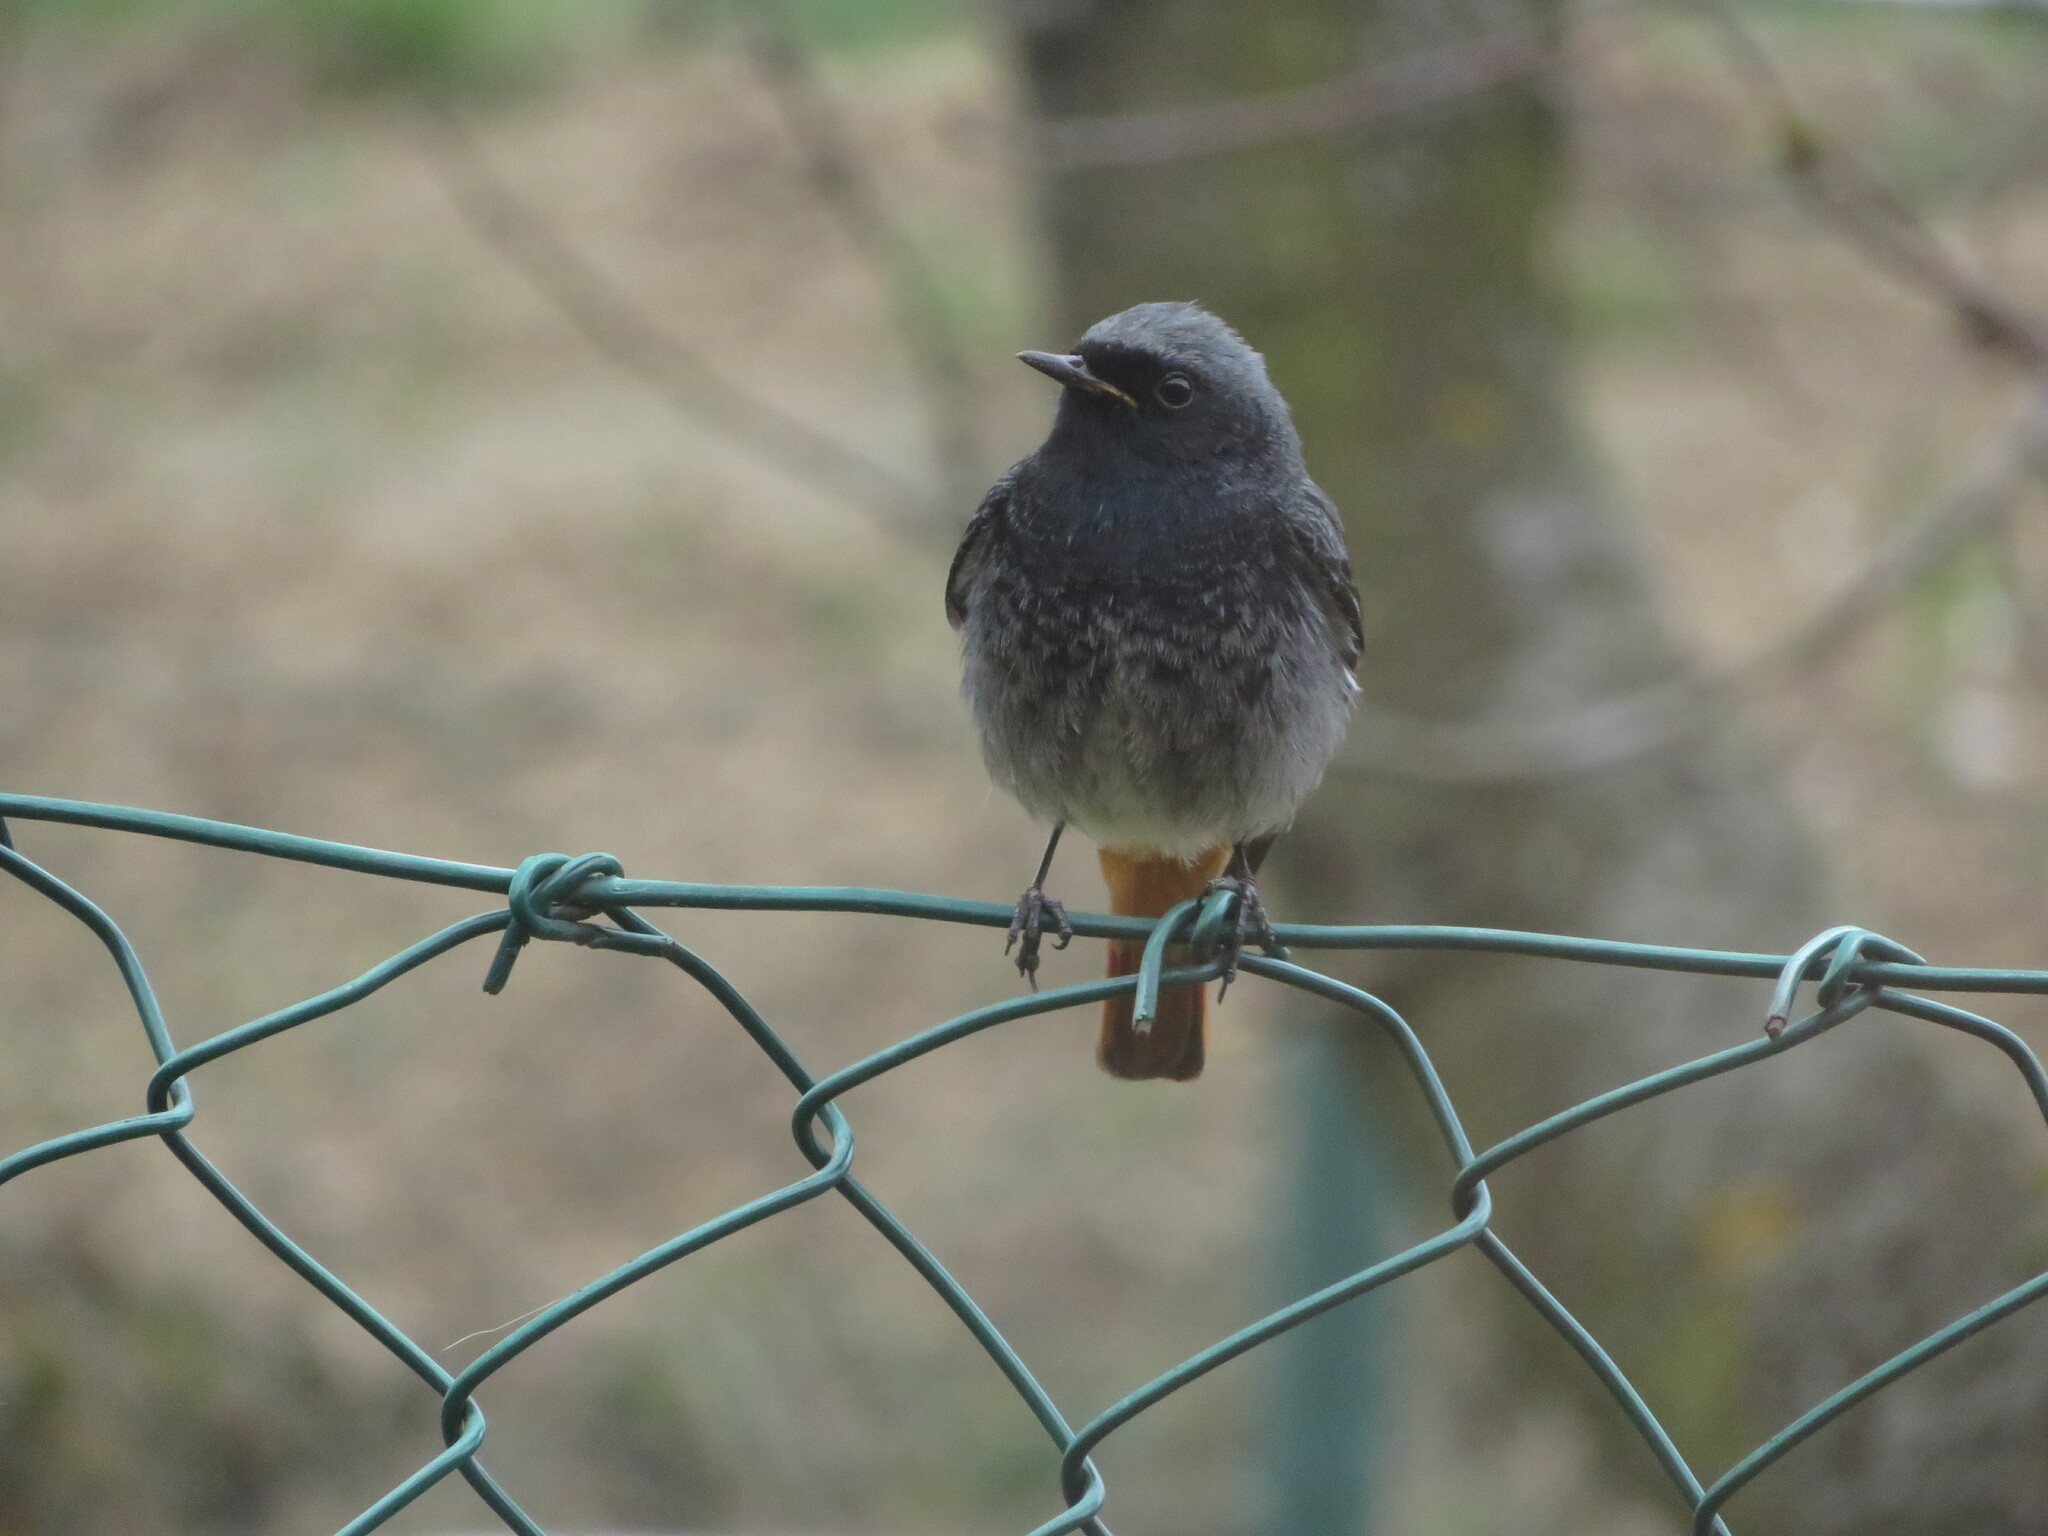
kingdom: Animalia
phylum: Chordata
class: Aves
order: Passeriformes
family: Muscicapidae
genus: Phoenicurus
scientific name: Phoenicurus ochruros
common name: Black redstart
